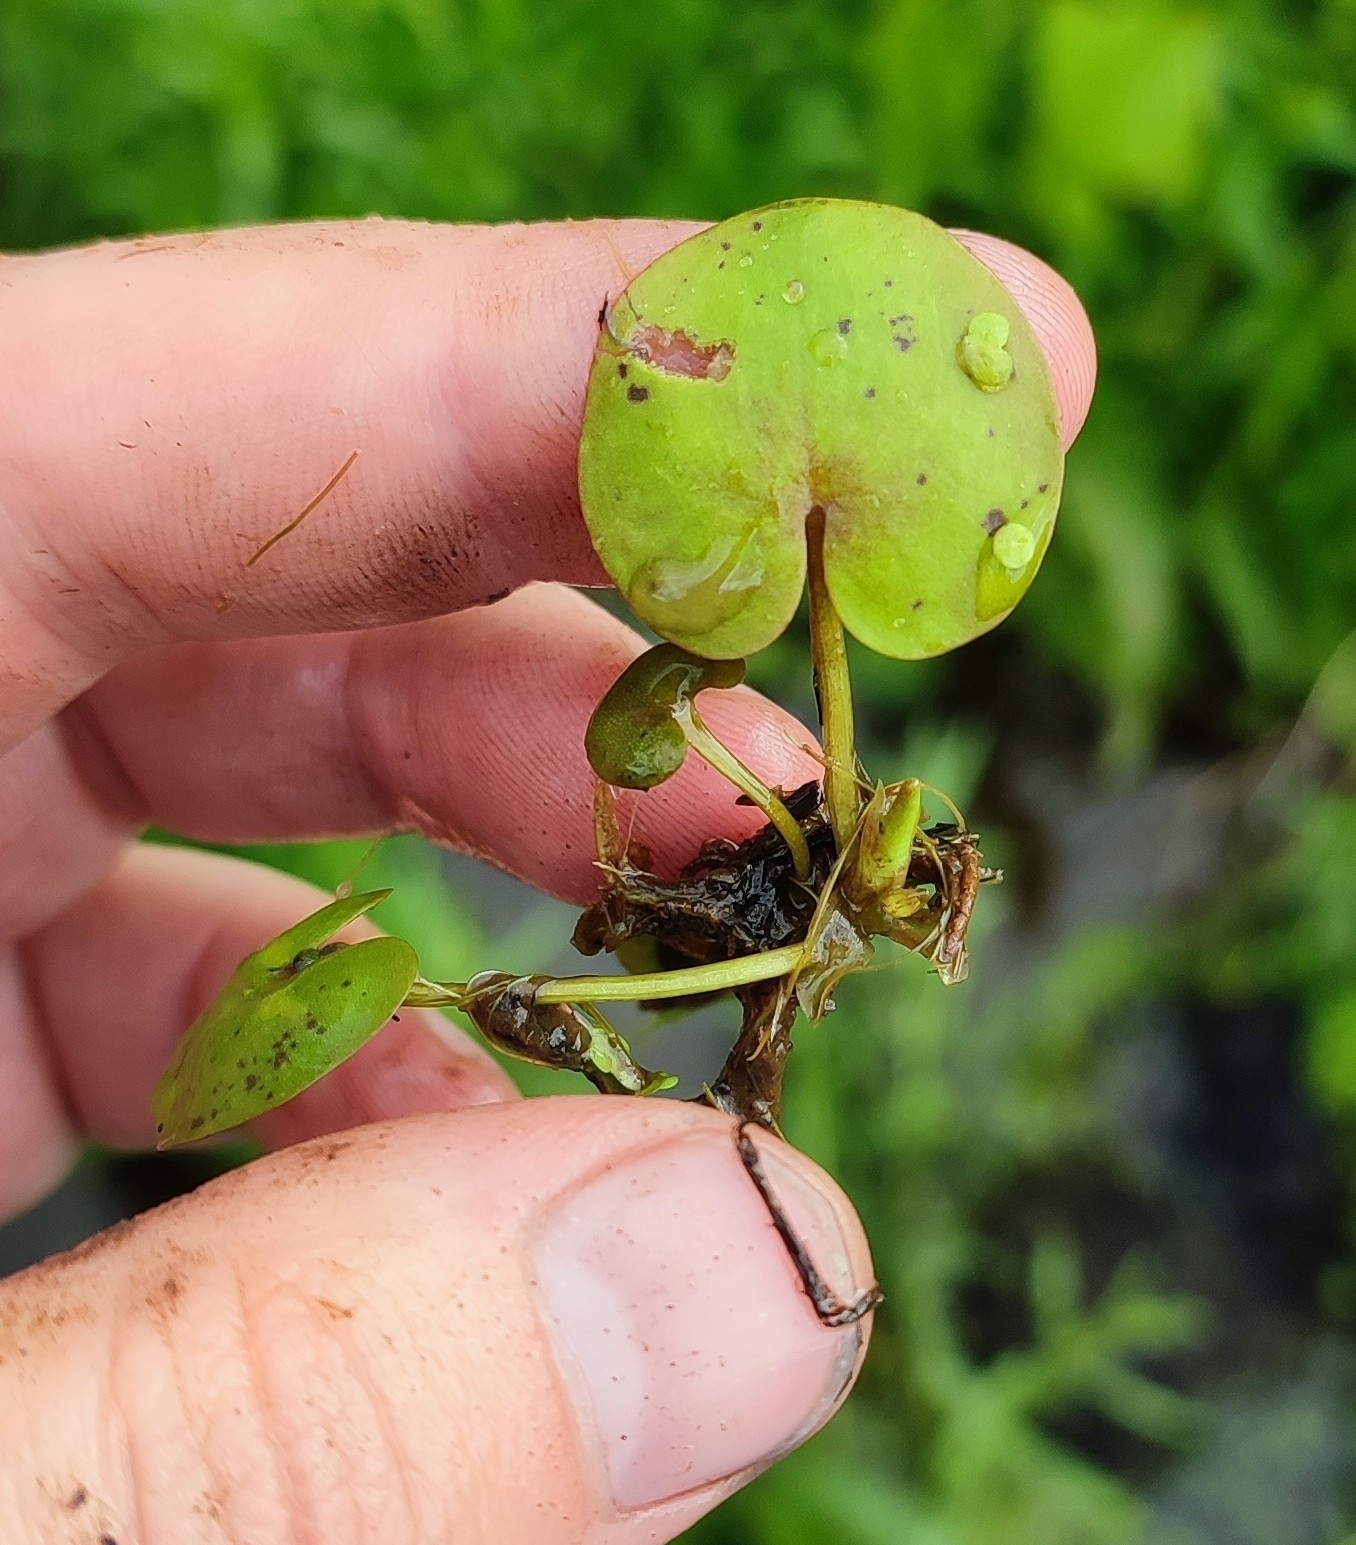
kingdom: Plantae
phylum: Tracheophyta
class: Liliopsida
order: Alismatales
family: Hydrocharitaceae
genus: Hydrocharis
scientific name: Hydrocharis morsus-ranae
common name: Frogbit
